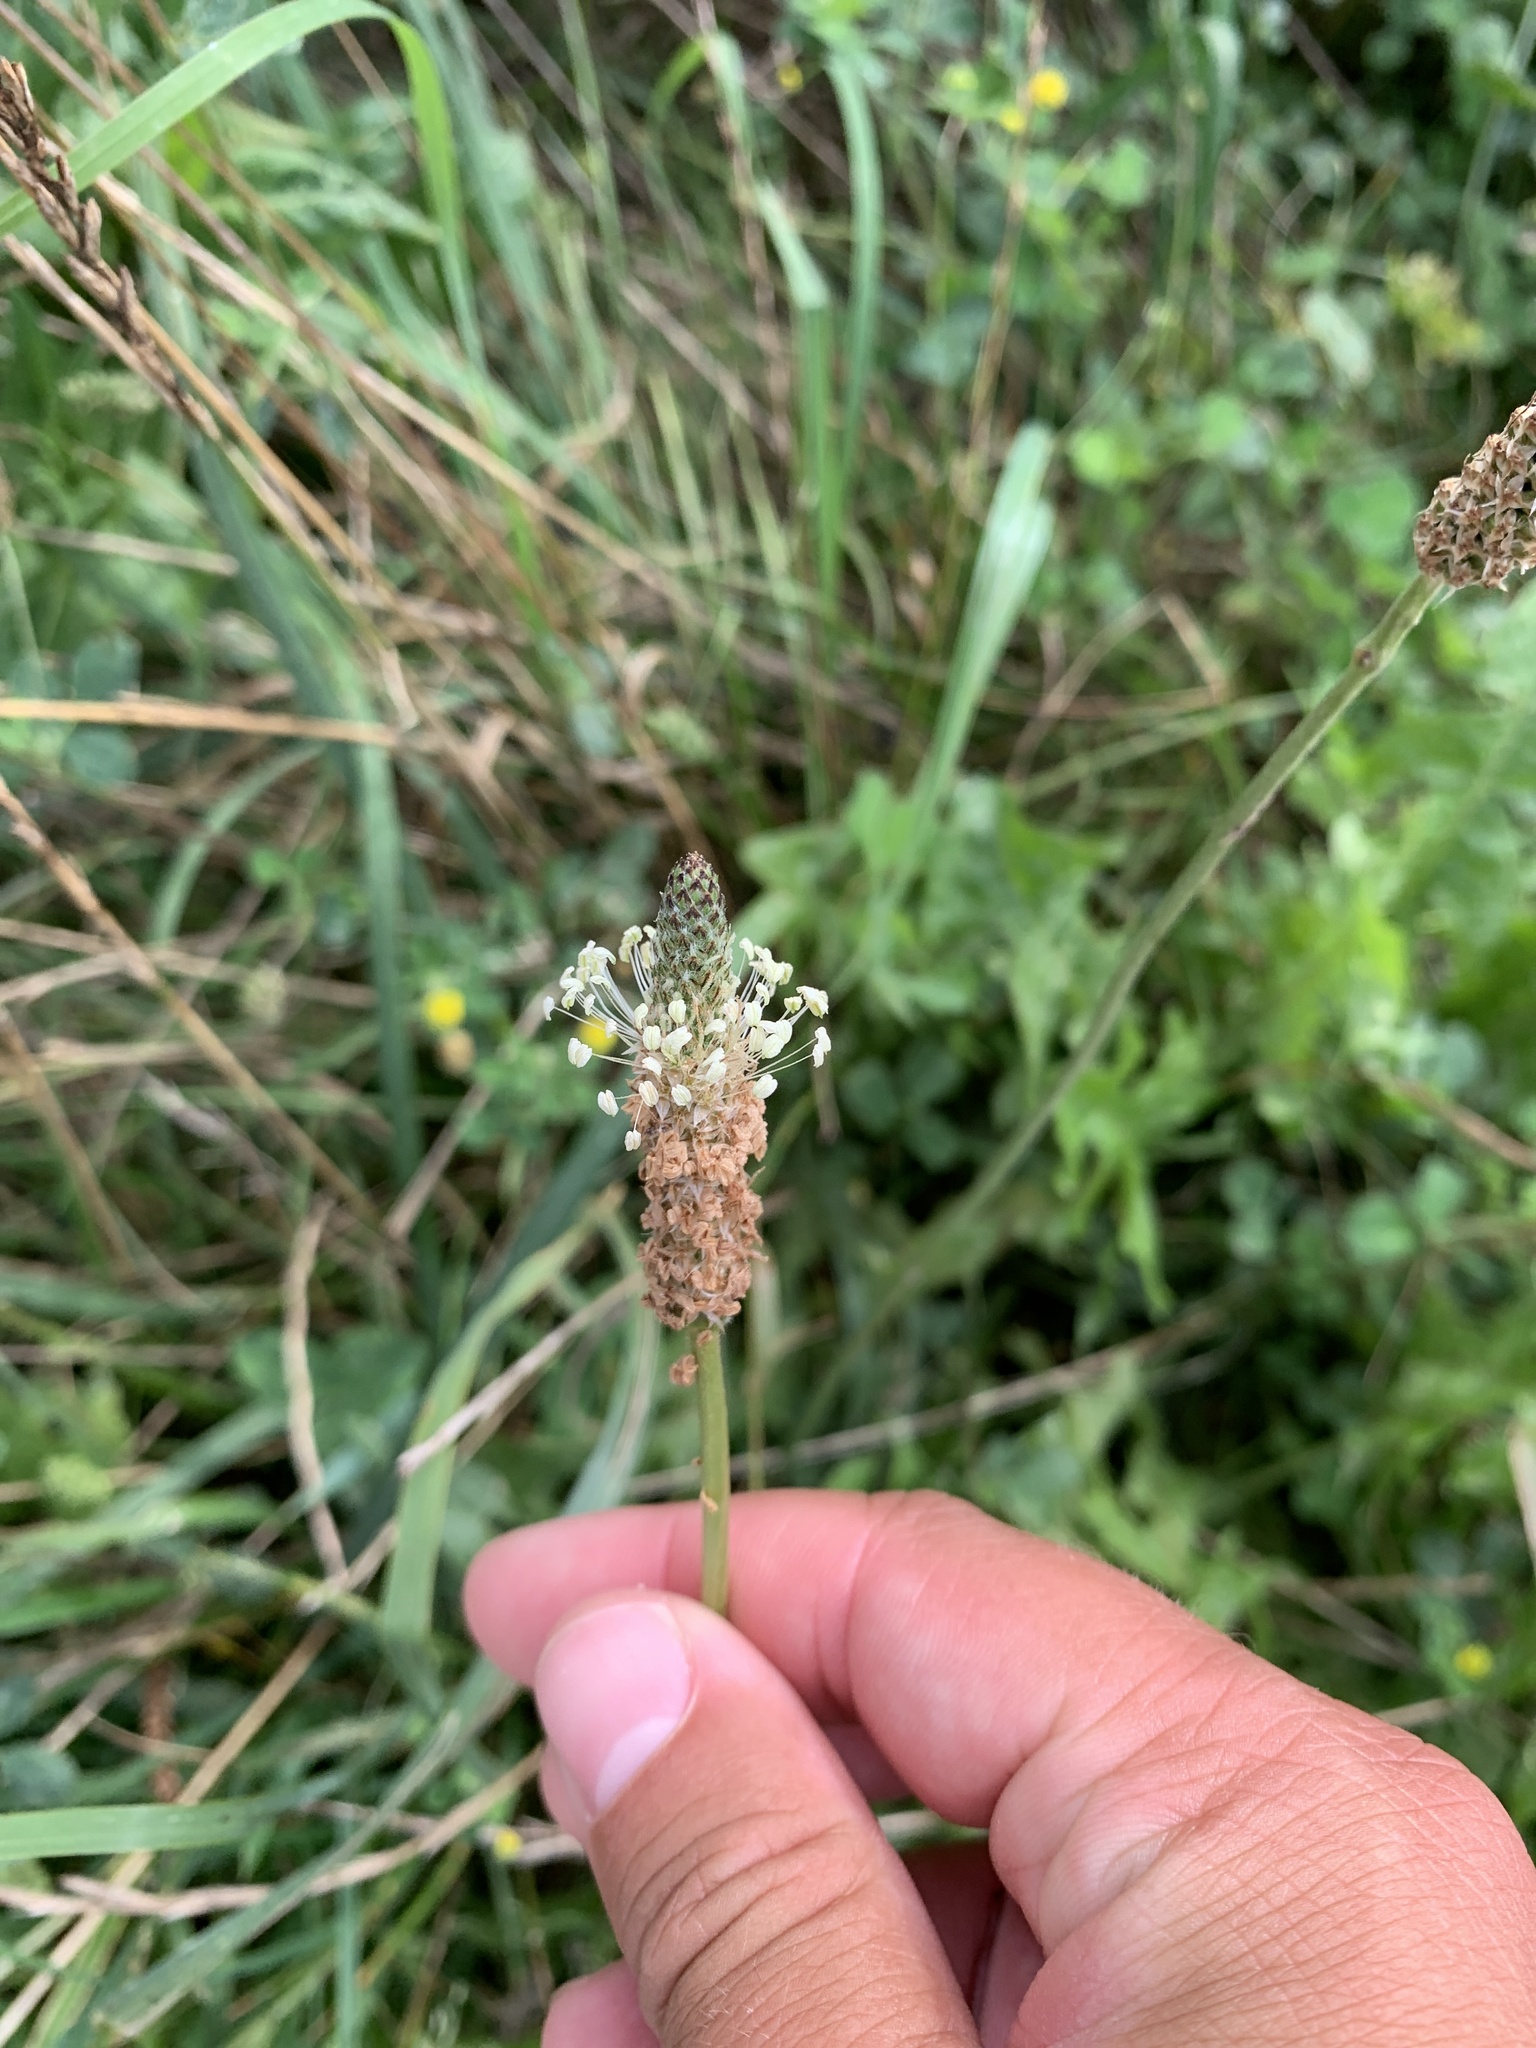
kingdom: Plantae
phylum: Tracheophyta
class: Magnoliopsida
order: Lamiales
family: Plantaginaceae
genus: Plantago
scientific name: Plantago lanceolata
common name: Ribwort plantain
